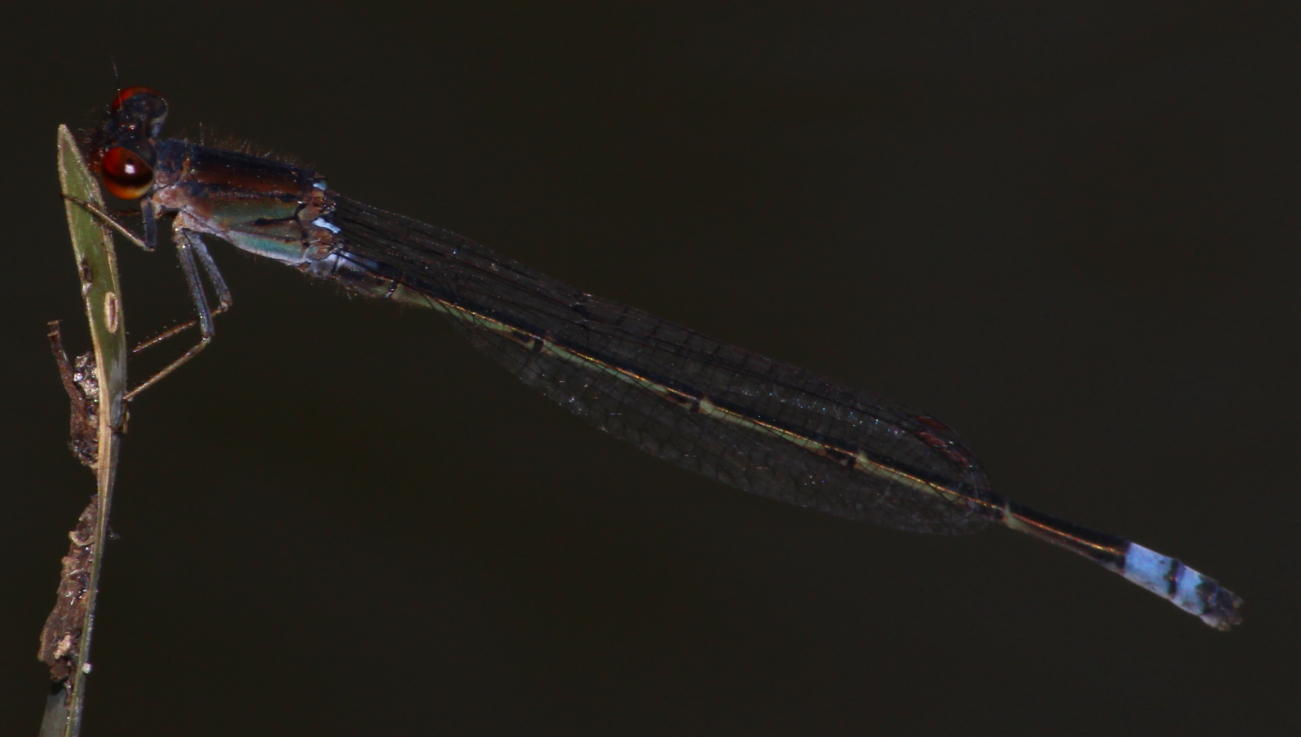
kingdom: Animalia
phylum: Arthropoda
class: Insecta
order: Odonata
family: Coenagrionidae
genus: Pseudagrion
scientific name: Pseudagrion hamoni
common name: Swarthy sprite
